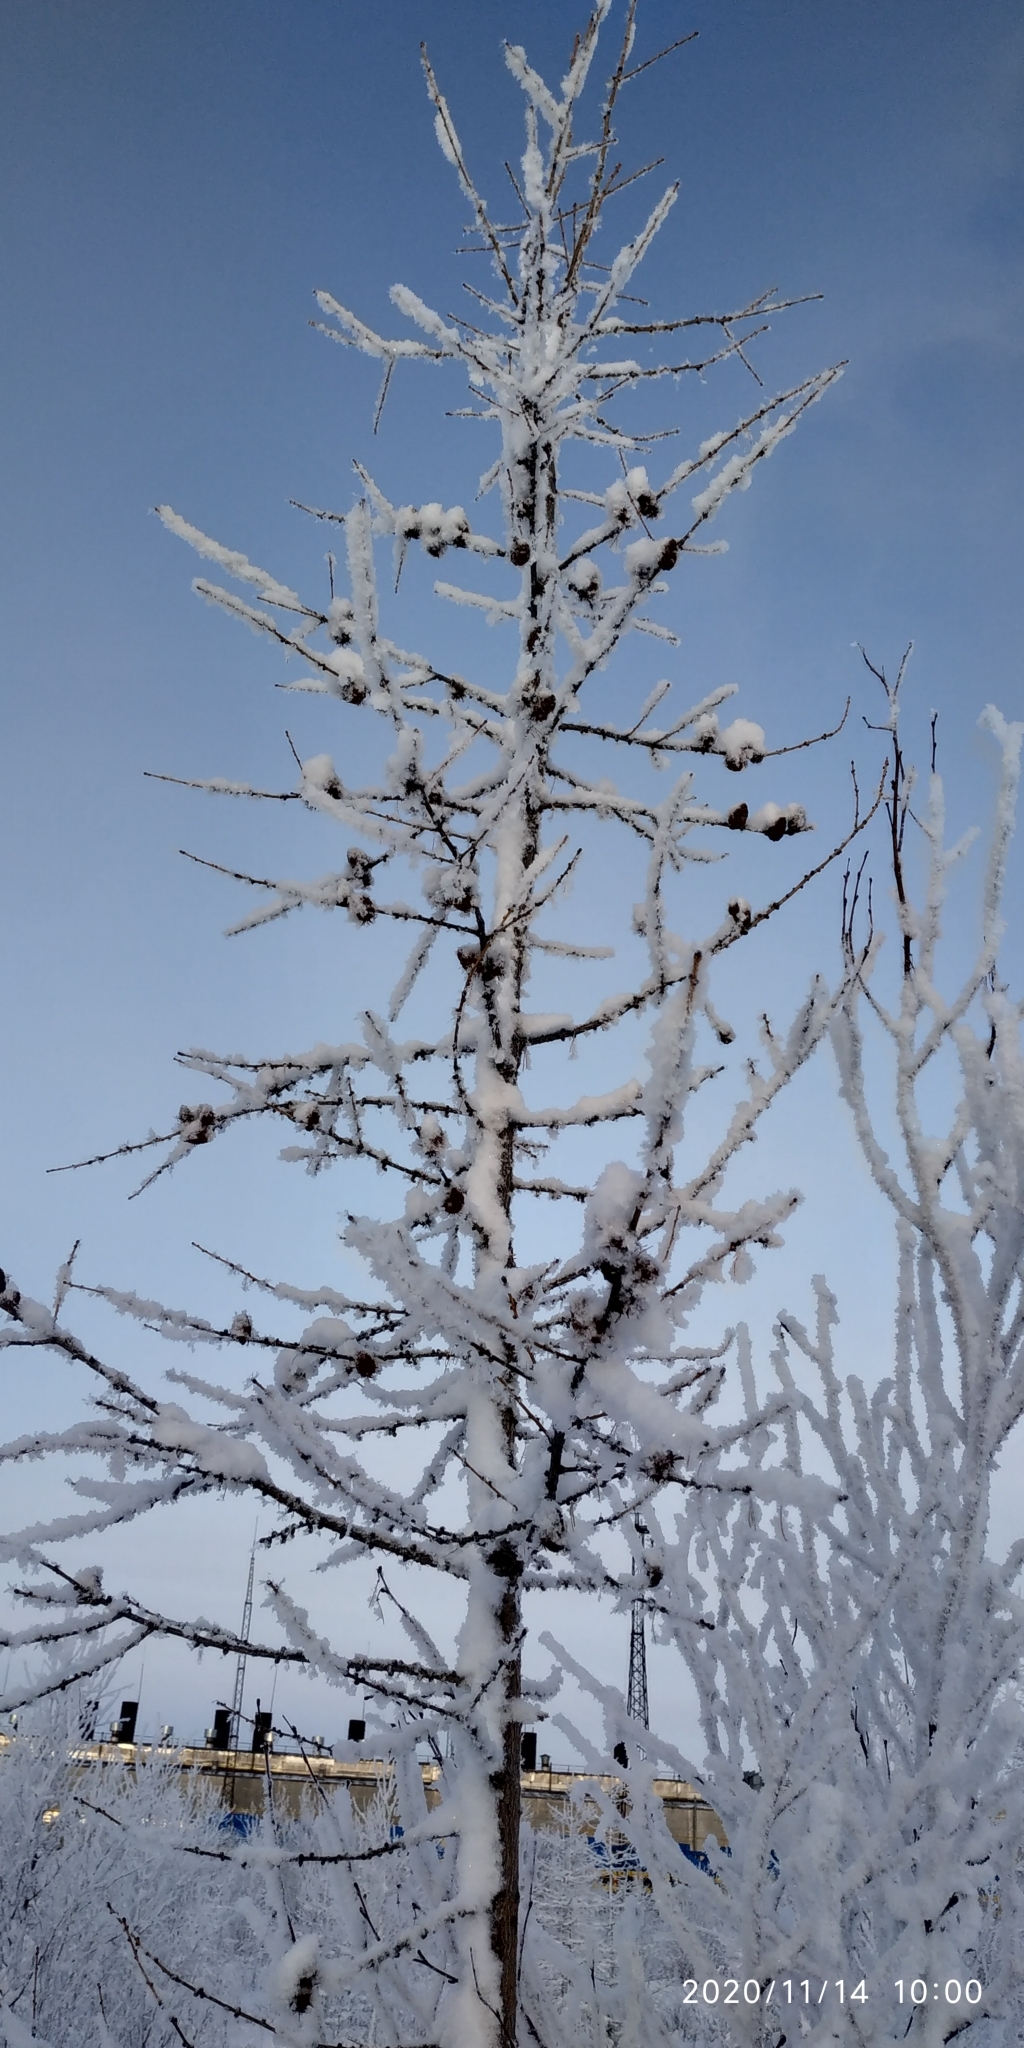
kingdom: Plantae
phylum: Tracheophyta
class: Pinopsida
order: Pinales
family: Pinaceae
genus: Larix
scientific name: Larix sibirica
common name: Siberian larch
